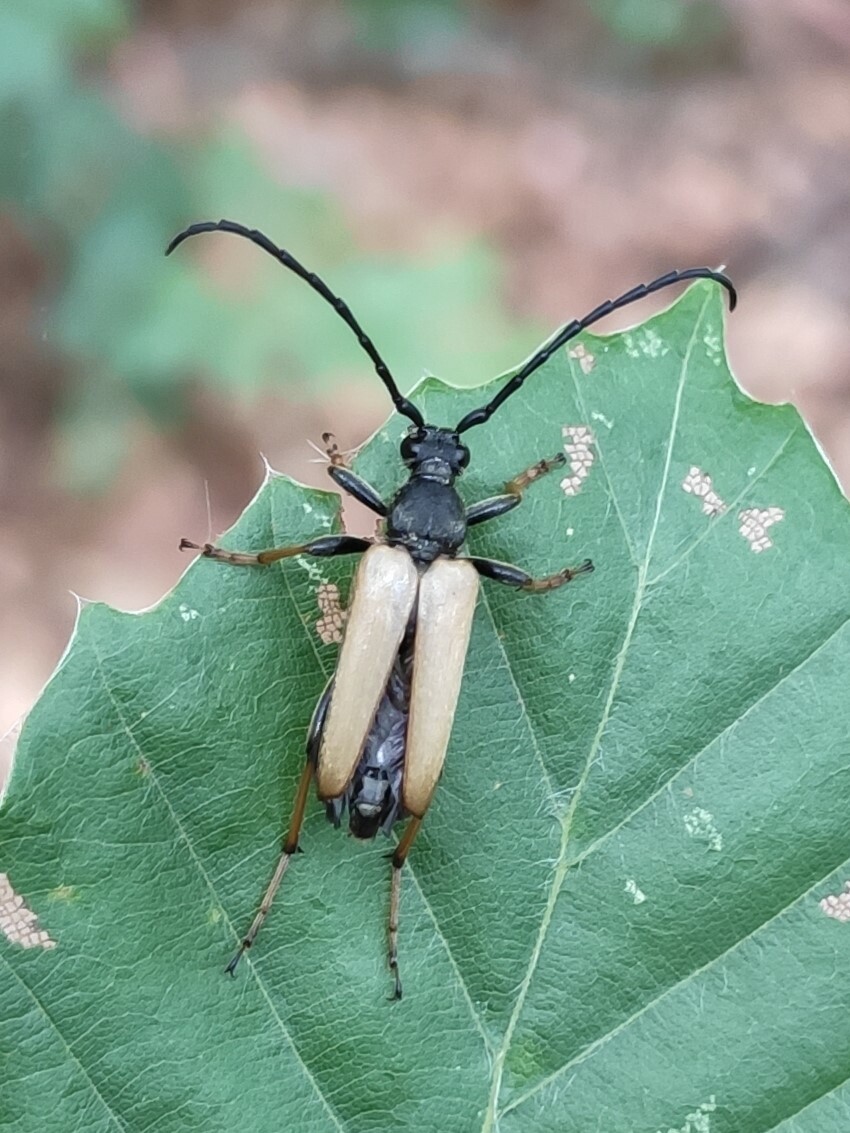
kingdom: Animalia
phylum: Arthropoda
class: Insecta
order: Coleoptera
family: Cerambycidae
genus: Stictoleptura
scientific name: Stictoleptura rubra
